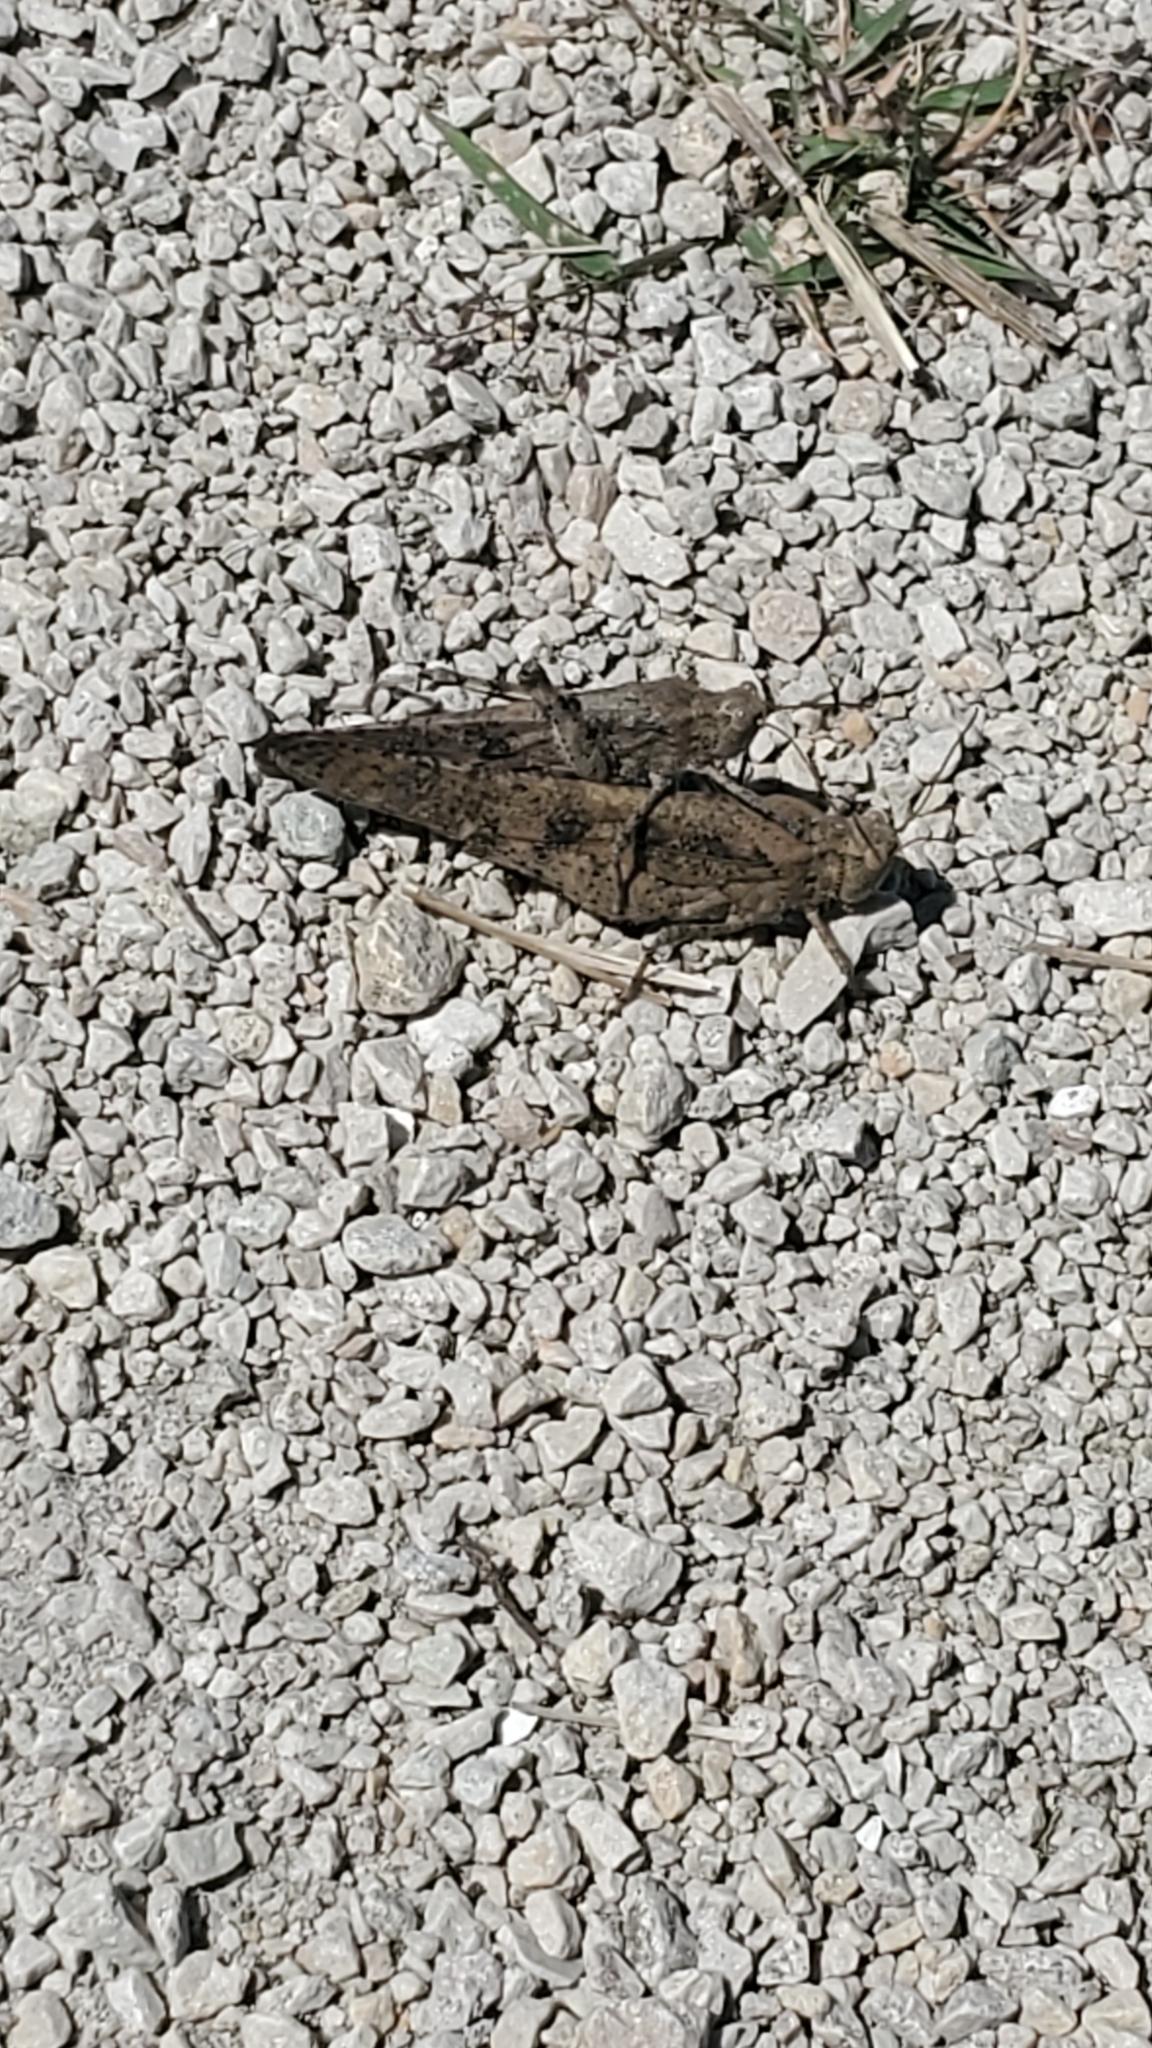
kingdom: Animalia
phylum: Arthropoda
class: Insecta
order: Orthoptera
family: Acrididae
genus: Dissosteira
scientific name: Dissosteira carolina
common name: Carolina grasshopper
